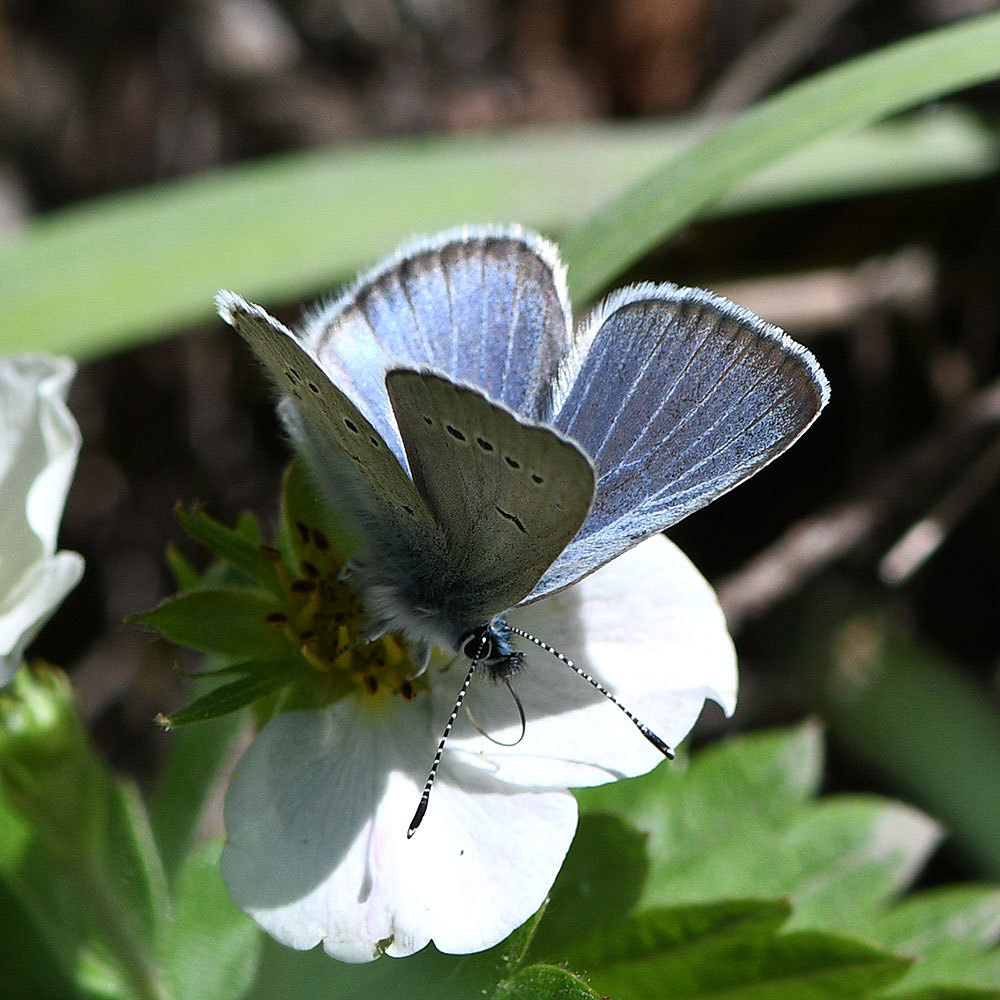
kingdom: Animalia
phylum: Arthropoda
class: Insecta
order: Lepidoptera
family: Lycaenidae
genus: Glaucopsyche
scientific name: Glaucopsyche lygdamus
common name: Silvery blue
